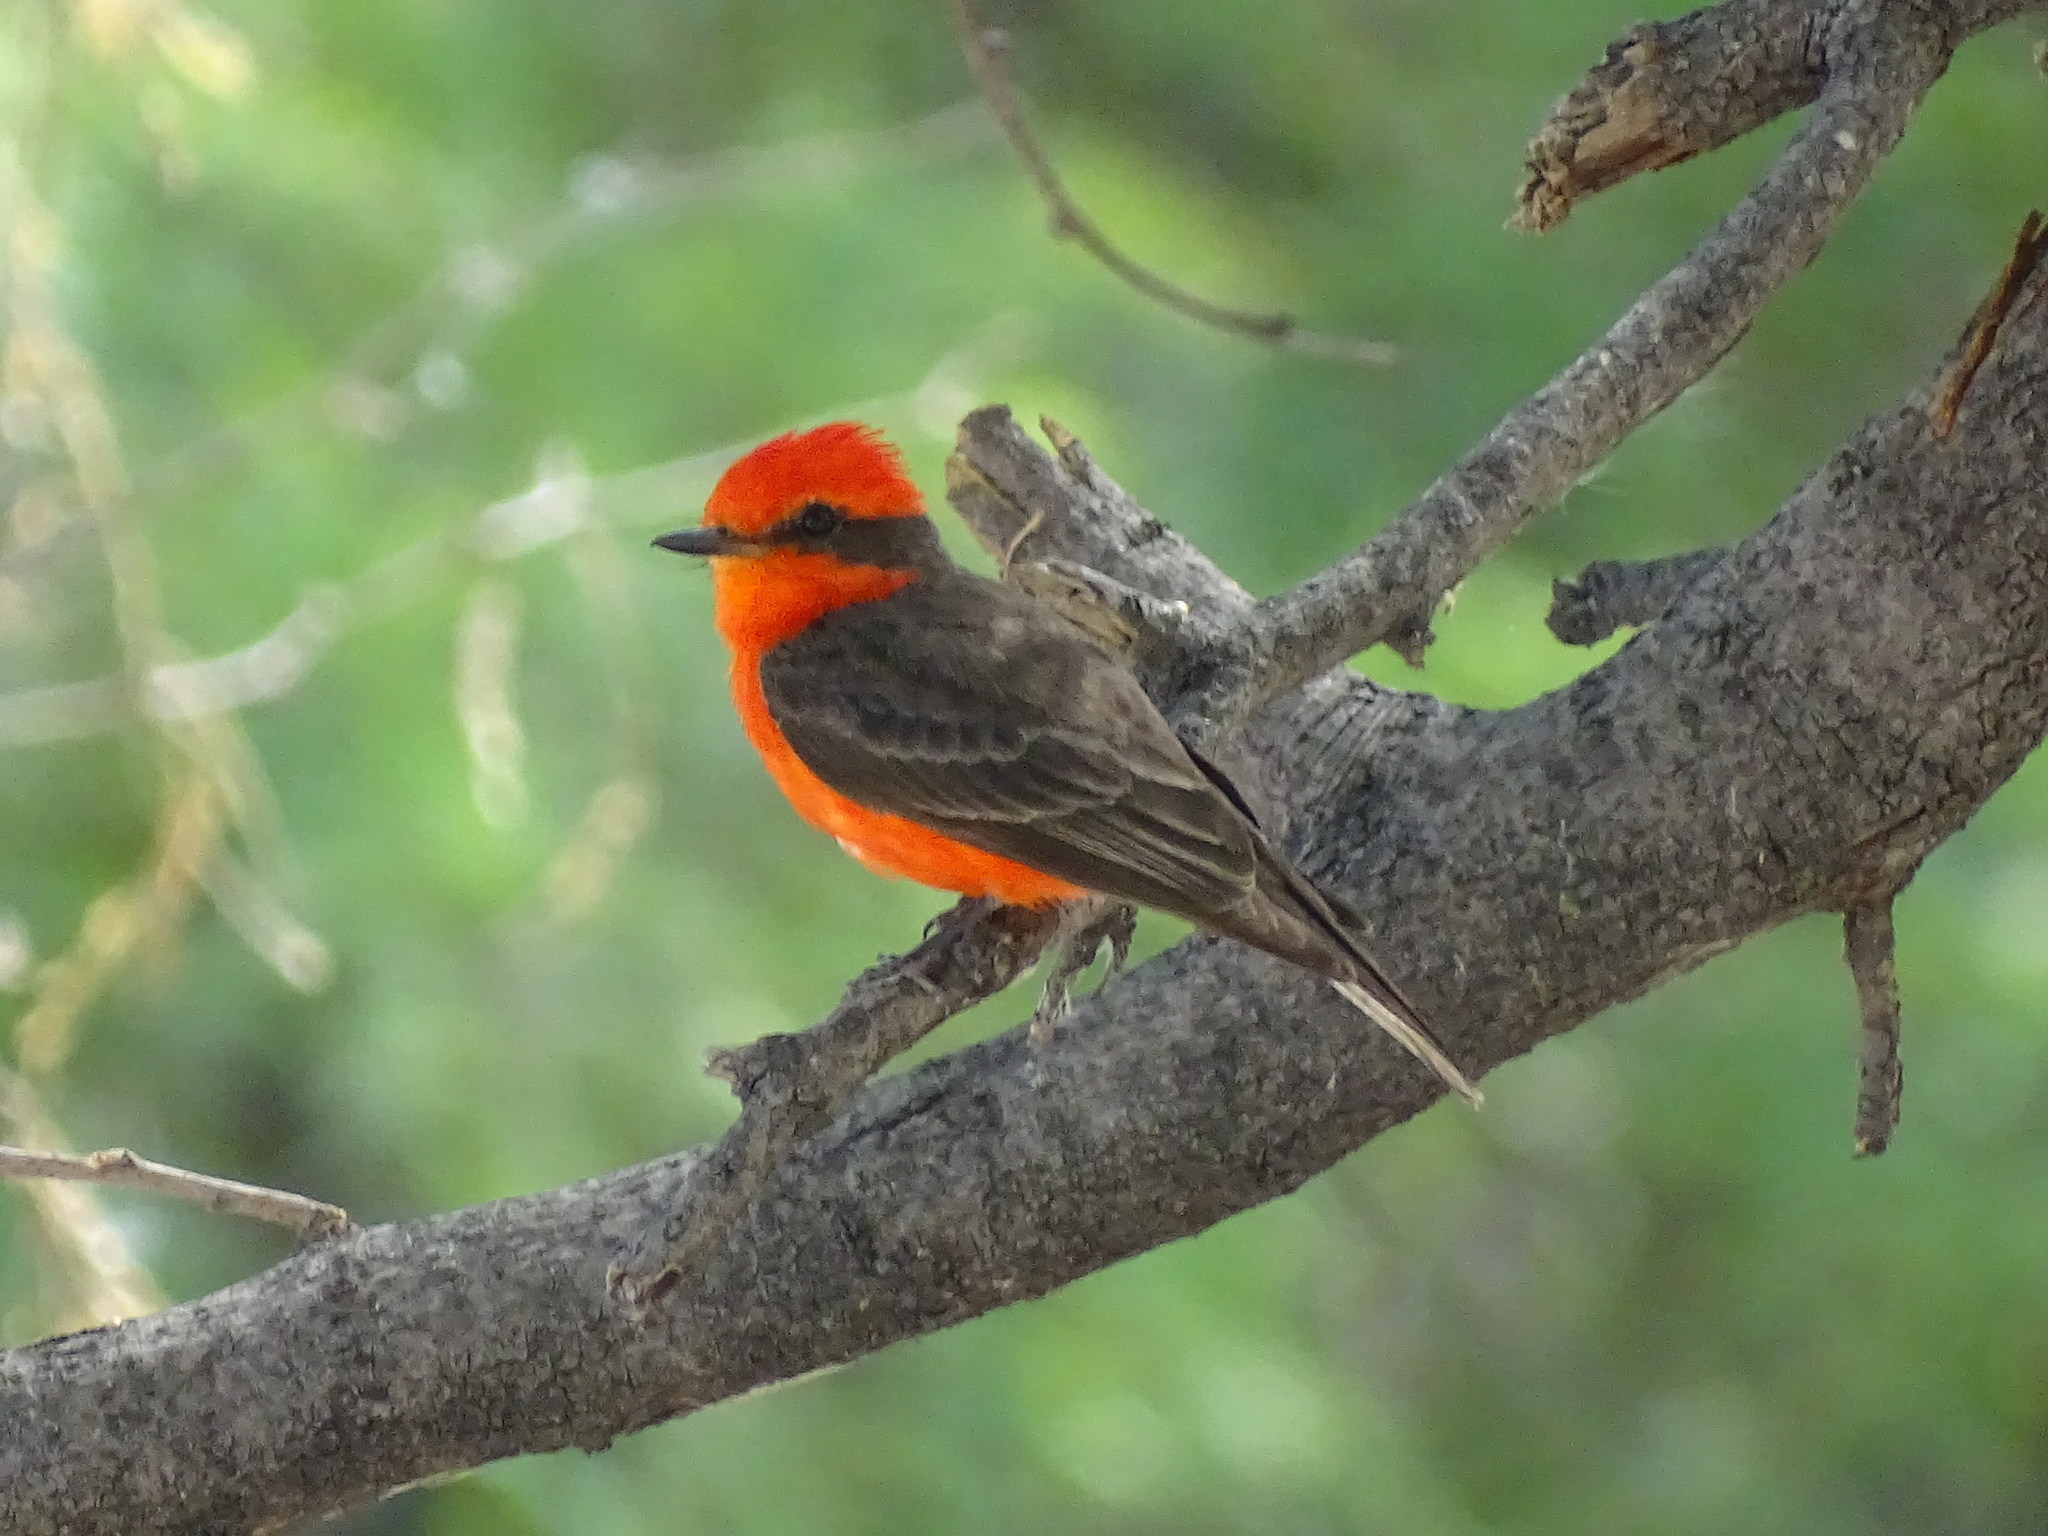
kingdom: Animalia
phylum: Chordata
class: Aves
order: Passeriformes
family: Tyrannidae
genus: Pyrocephalus
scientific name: Pyrocephalus rubinus
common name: Vermilion flycatcher
